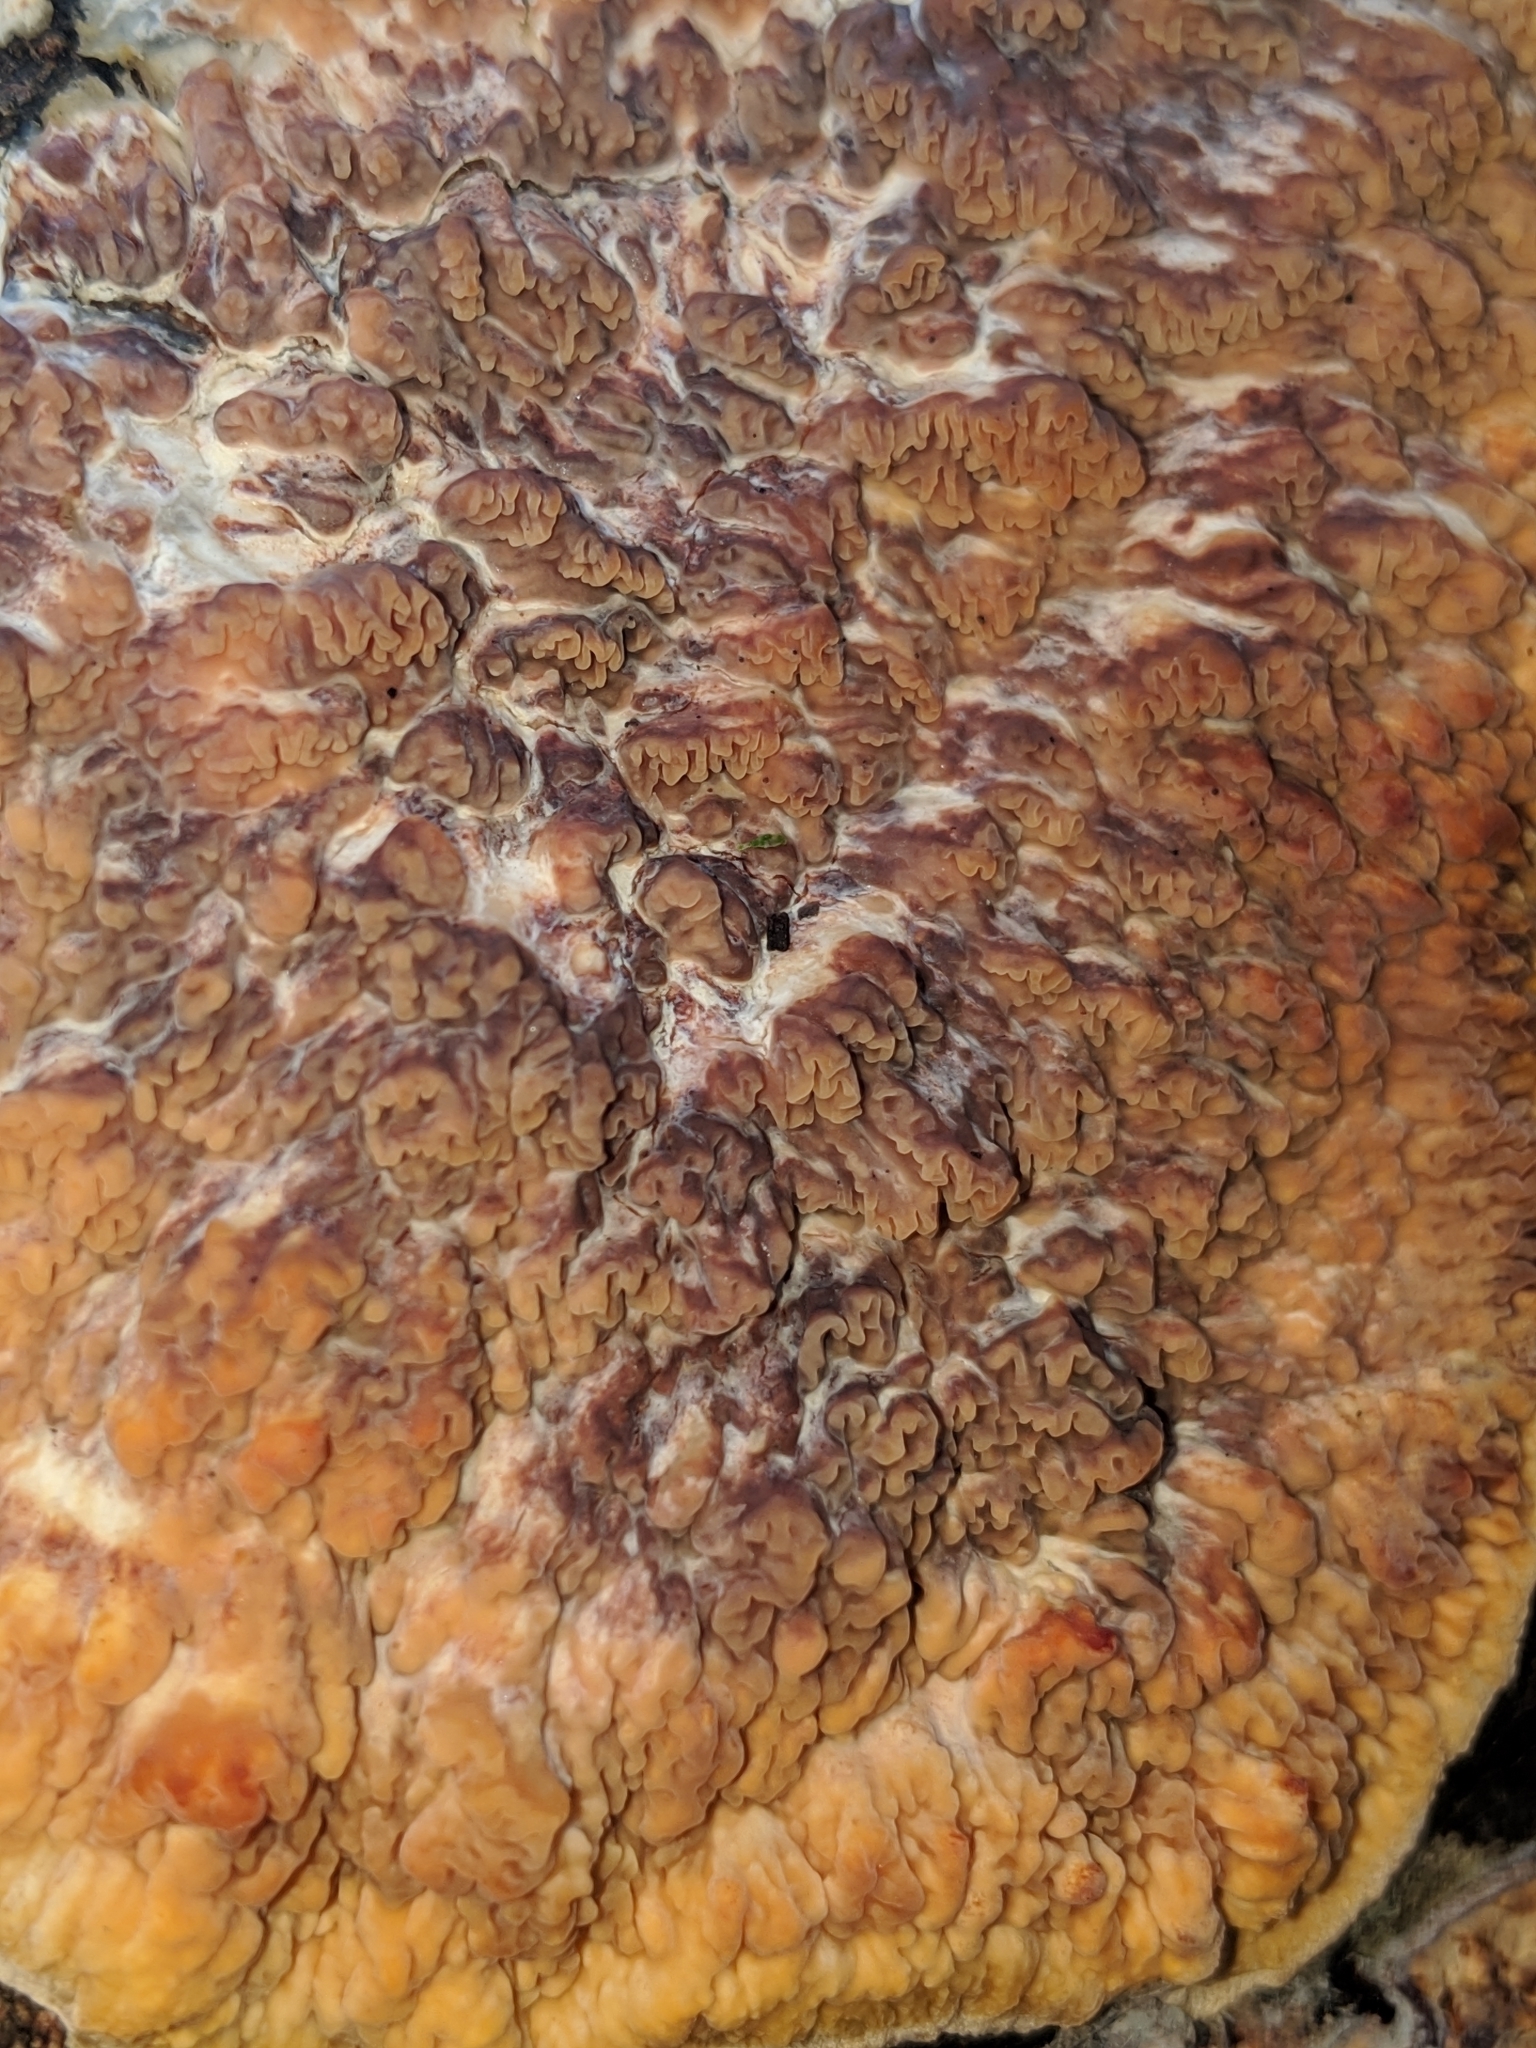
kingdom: Fungi
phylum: Basidiomycota
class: Agaricomycetes
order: Polyporales
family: Meruliaceae
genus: Phlebia
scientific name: Phlebia radiata
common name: Wrinkled crust
